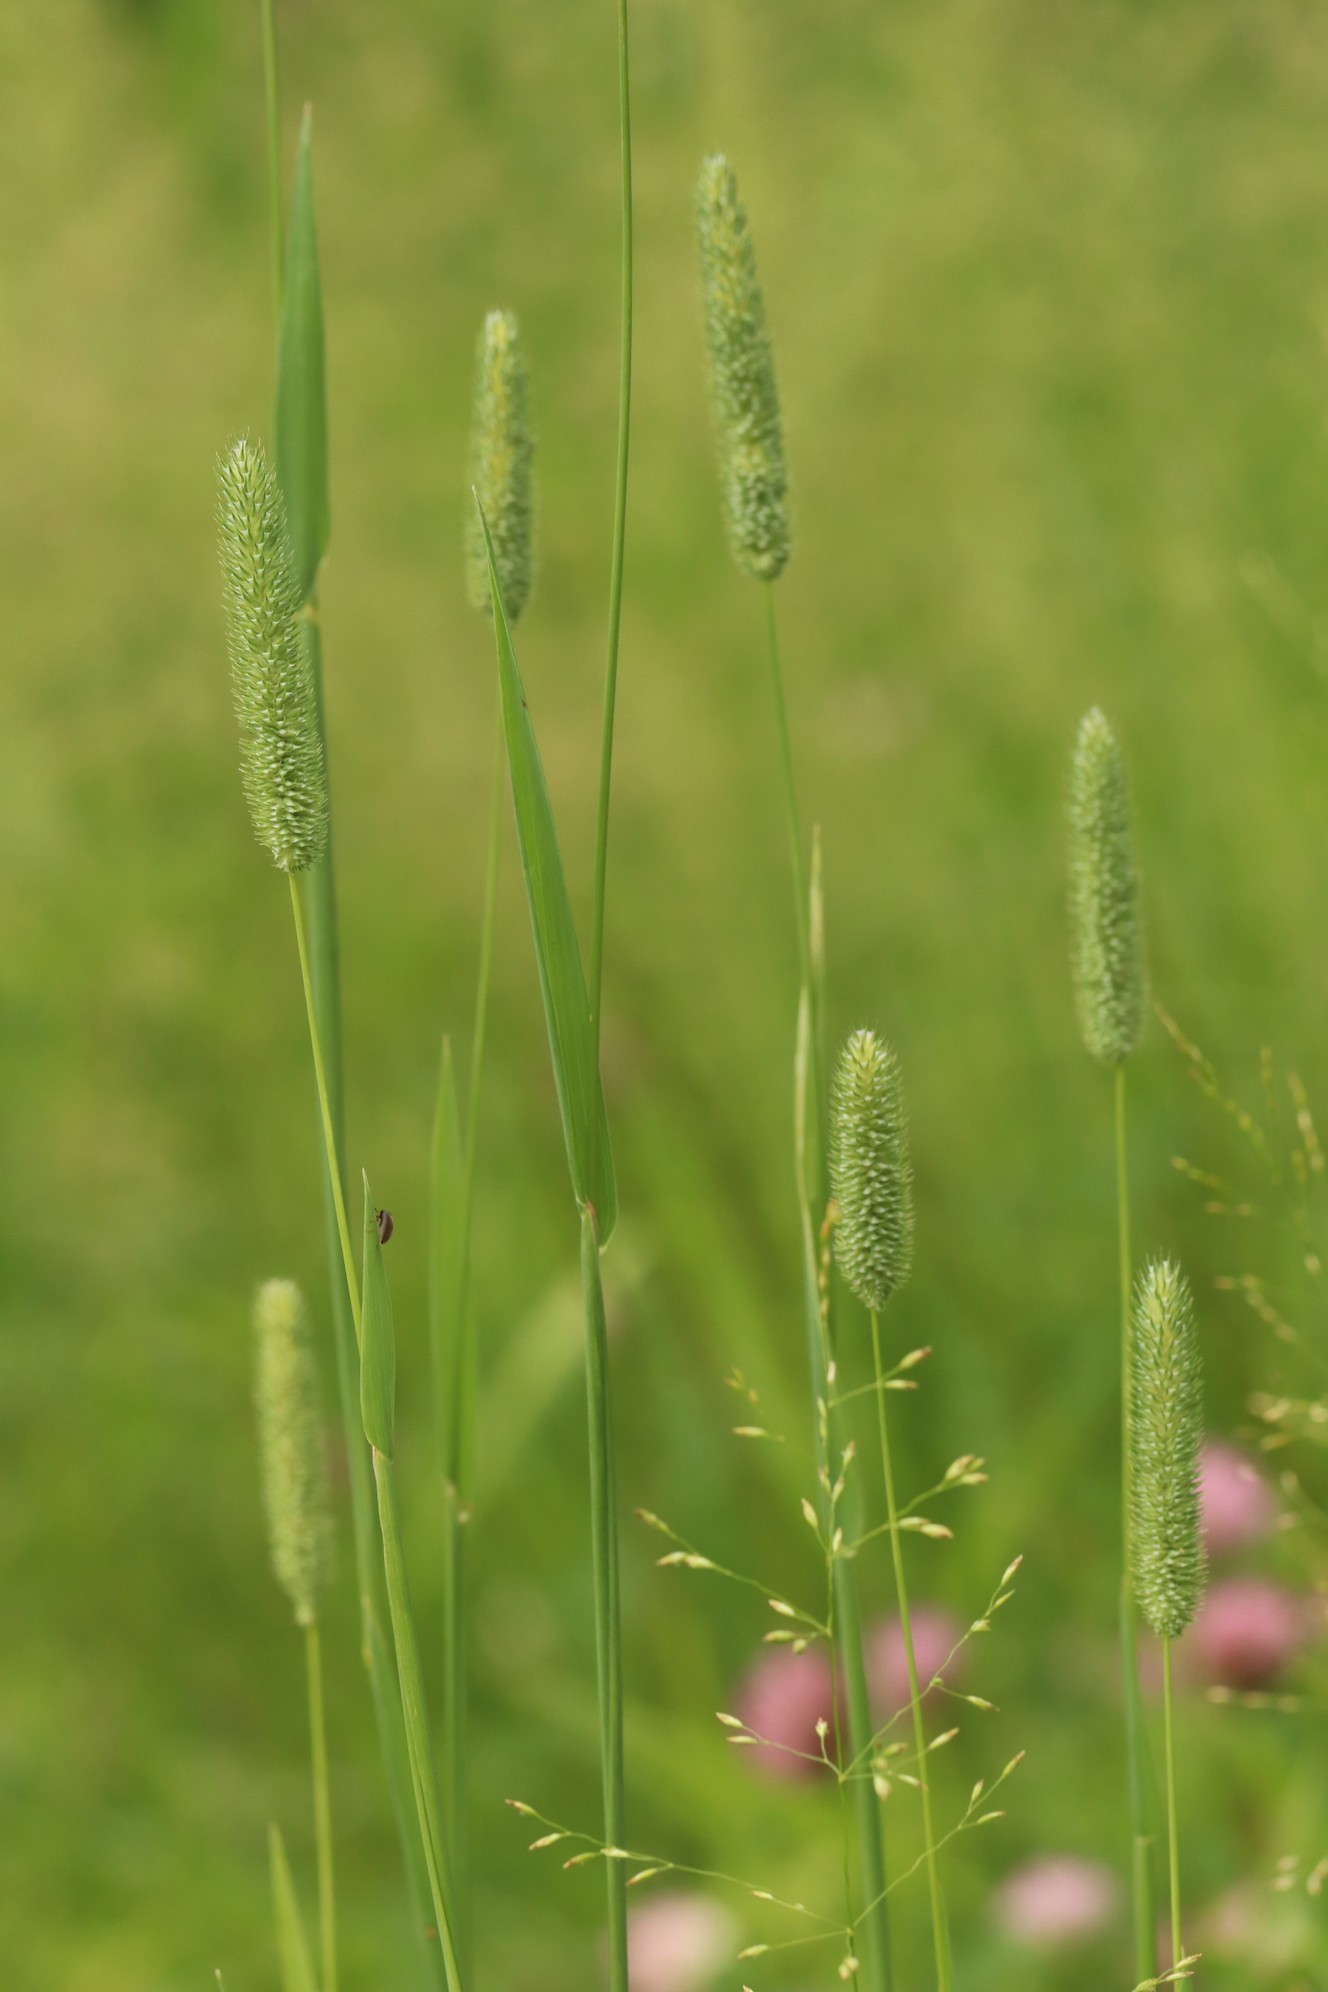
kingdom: Plantae
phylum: Tracheophyta
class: Liliopsida
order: Poales
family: Poaceae
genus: Phleum
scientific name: Phleum pratense
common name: Timothy grass
